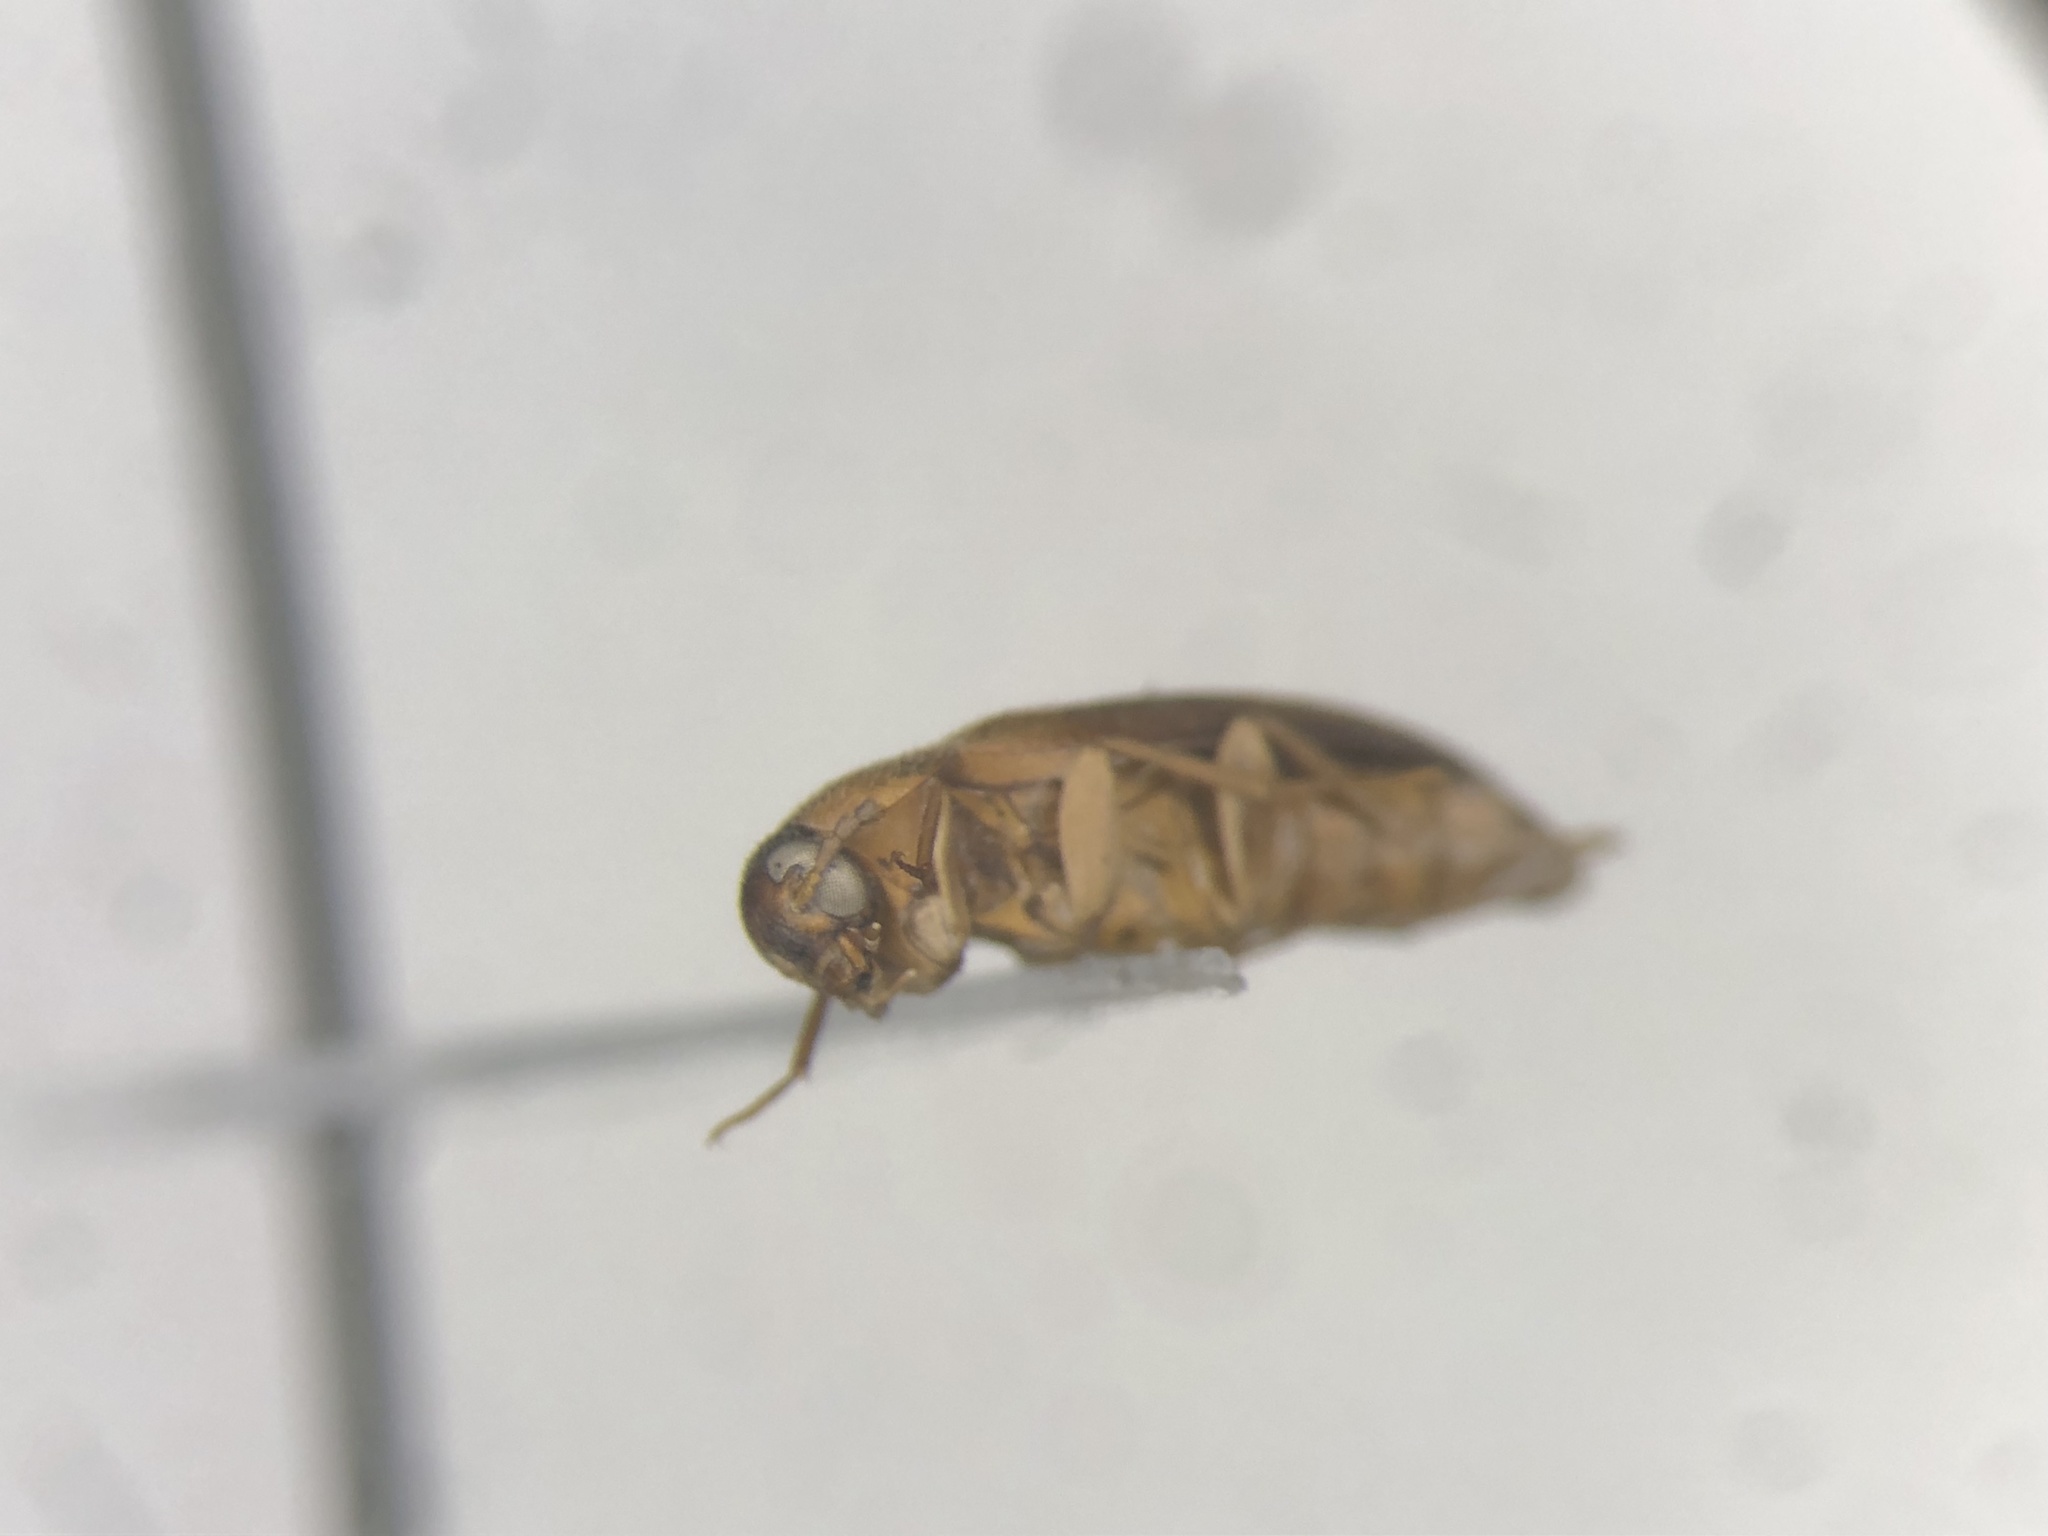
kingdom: Animalia
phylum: Arthropoda
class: Insecta
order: Coleoptera
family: Tetratomidae
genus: Hallomenus
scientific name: Hallomenus punctulatus
